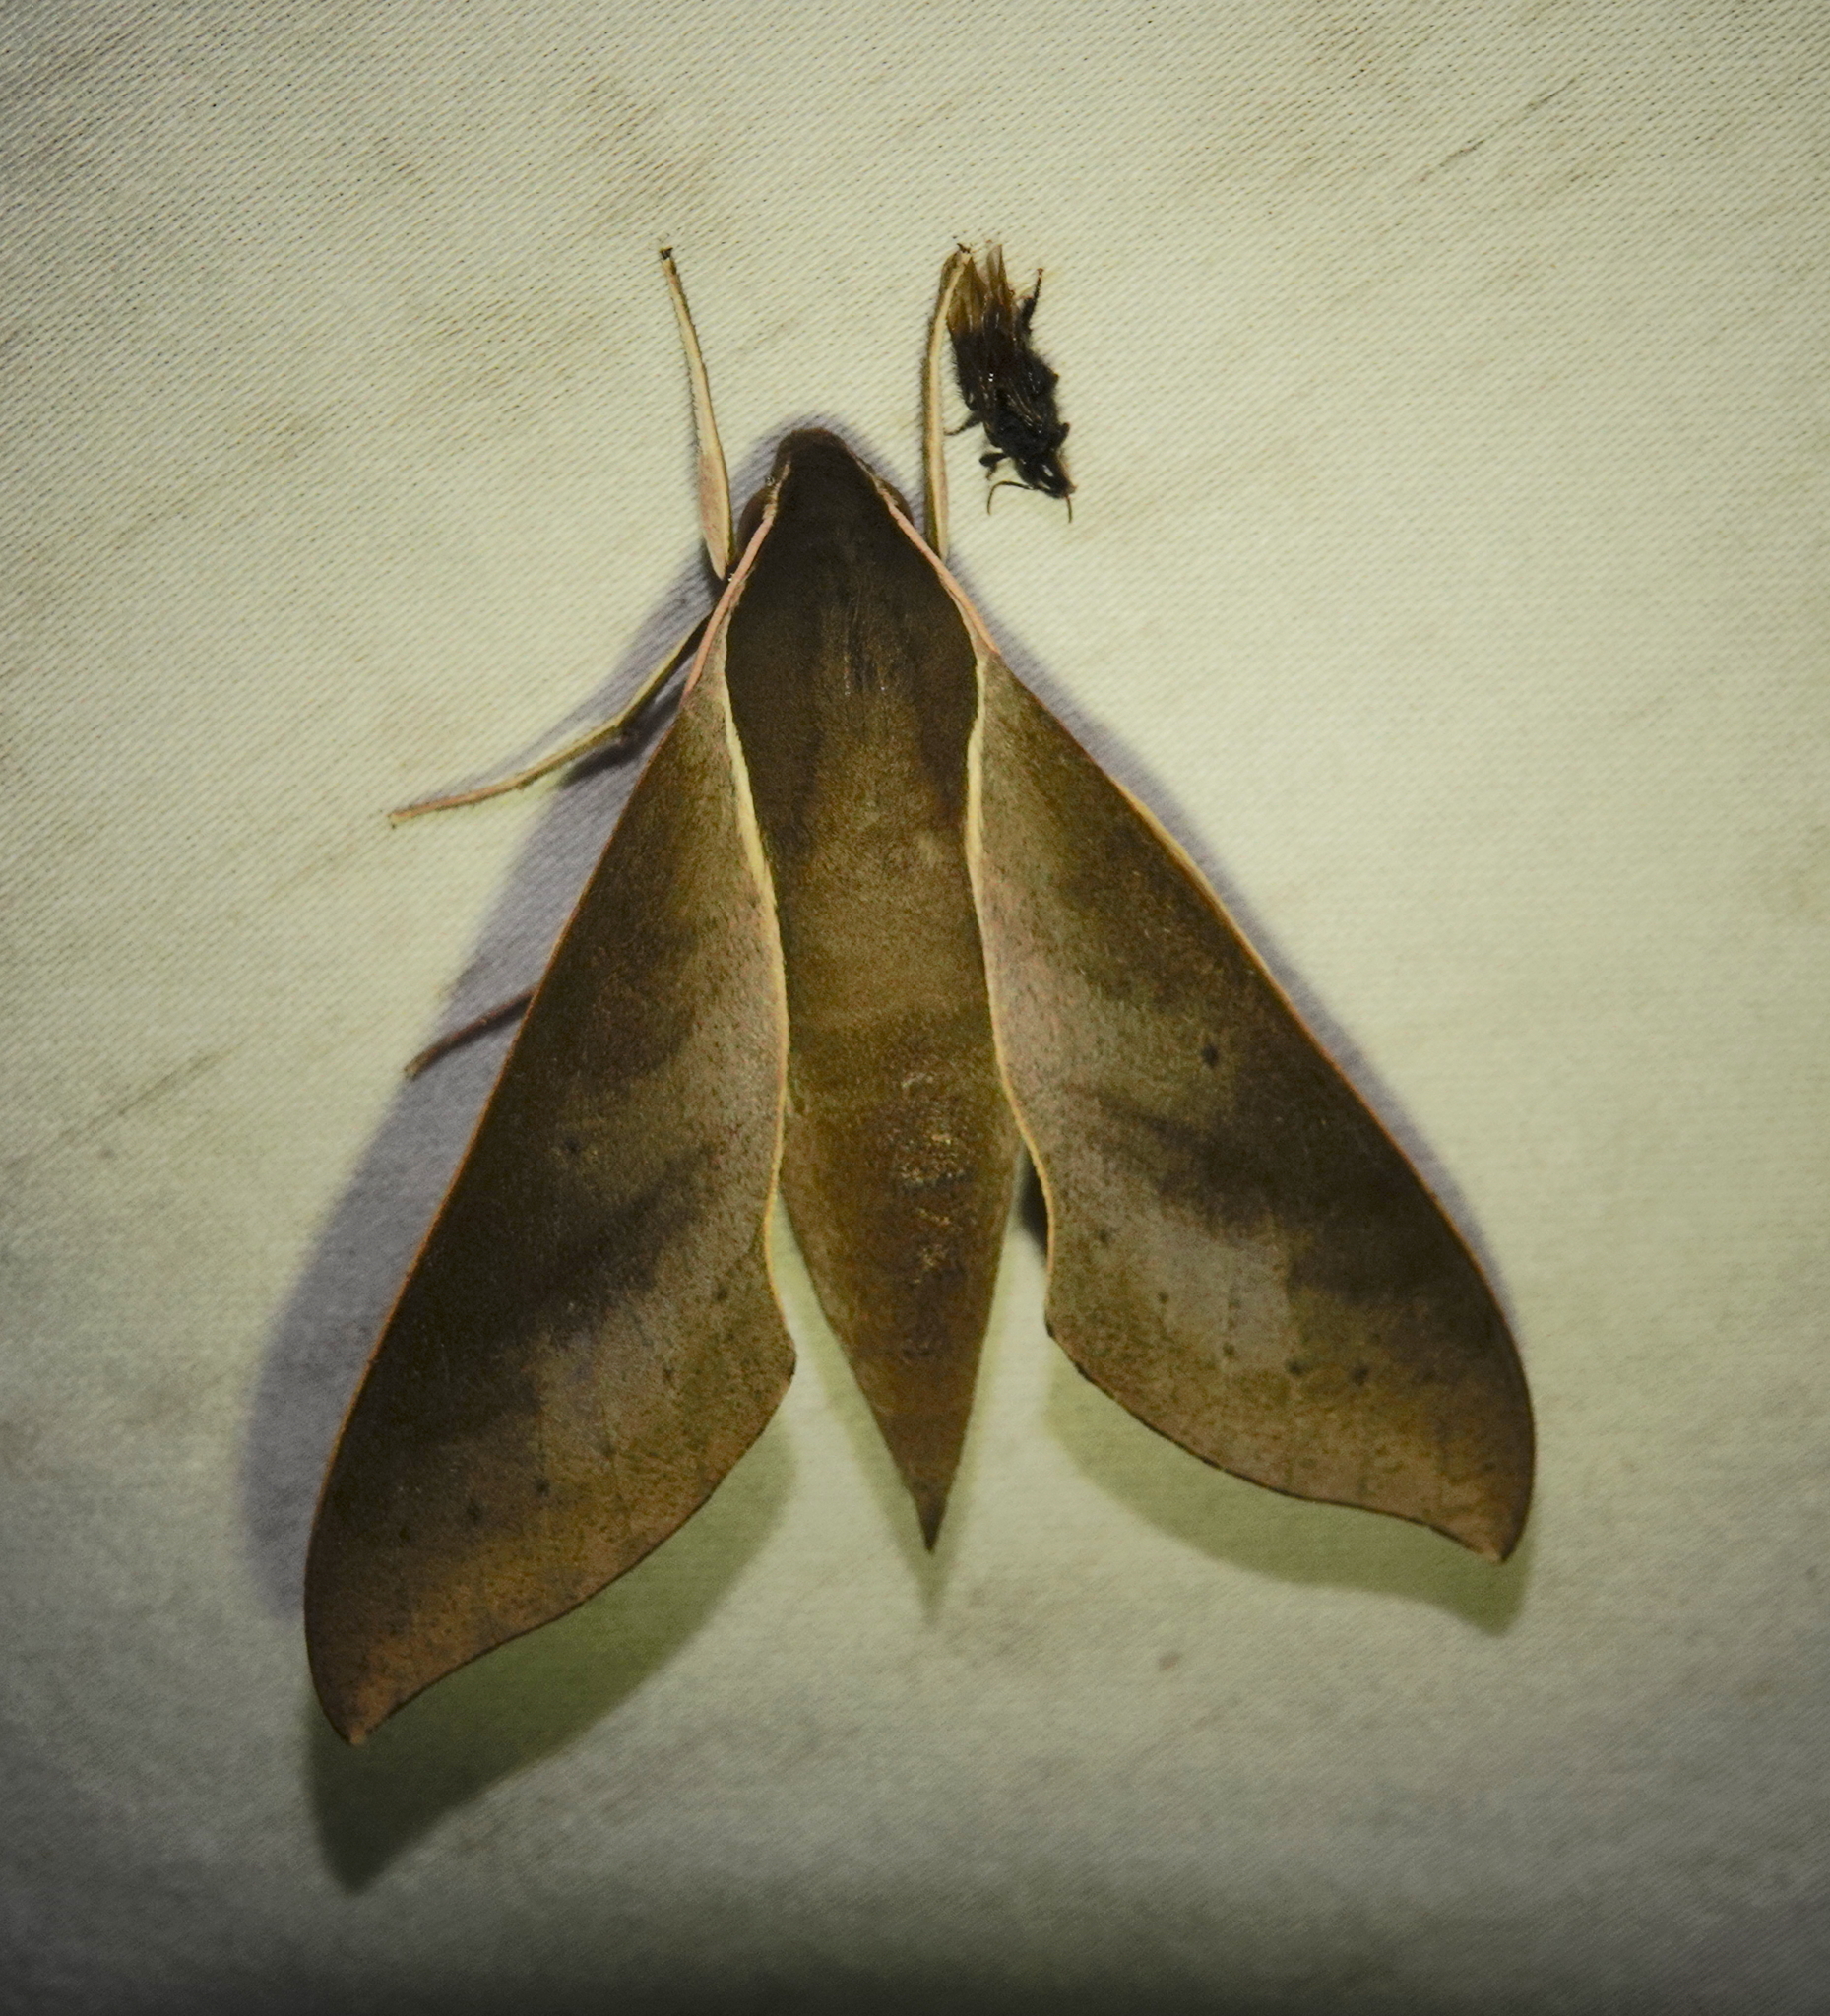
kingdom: Animalia
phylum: Arthropoda
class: Insecta
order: Lepidoptera
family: Sphingidae
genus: Xylophanes
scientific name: Xylophanes porcus
